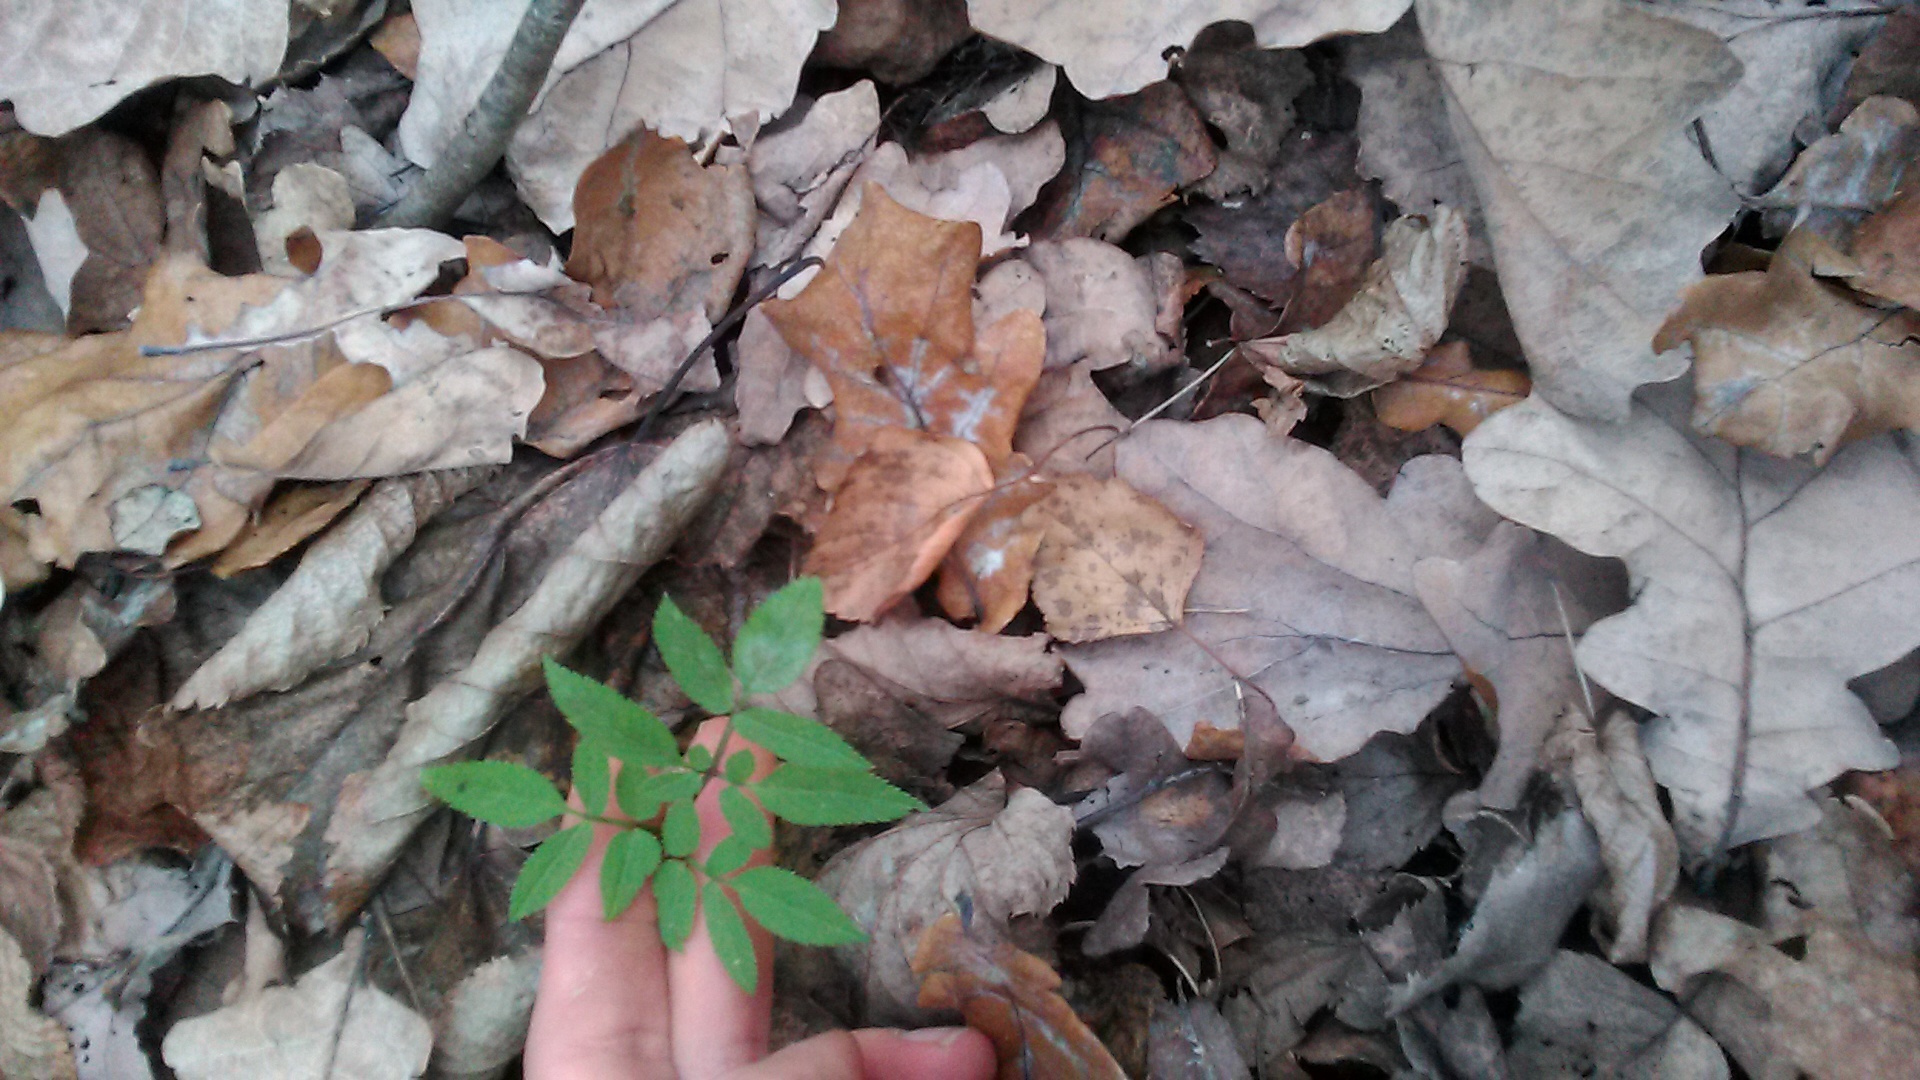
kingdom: Plantae
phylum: Tracheophyta
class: Magnoliopsida
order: Apiales
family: Apiaceae
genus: Angelica
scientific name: Angelica sylvestris
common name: Wild angelica
